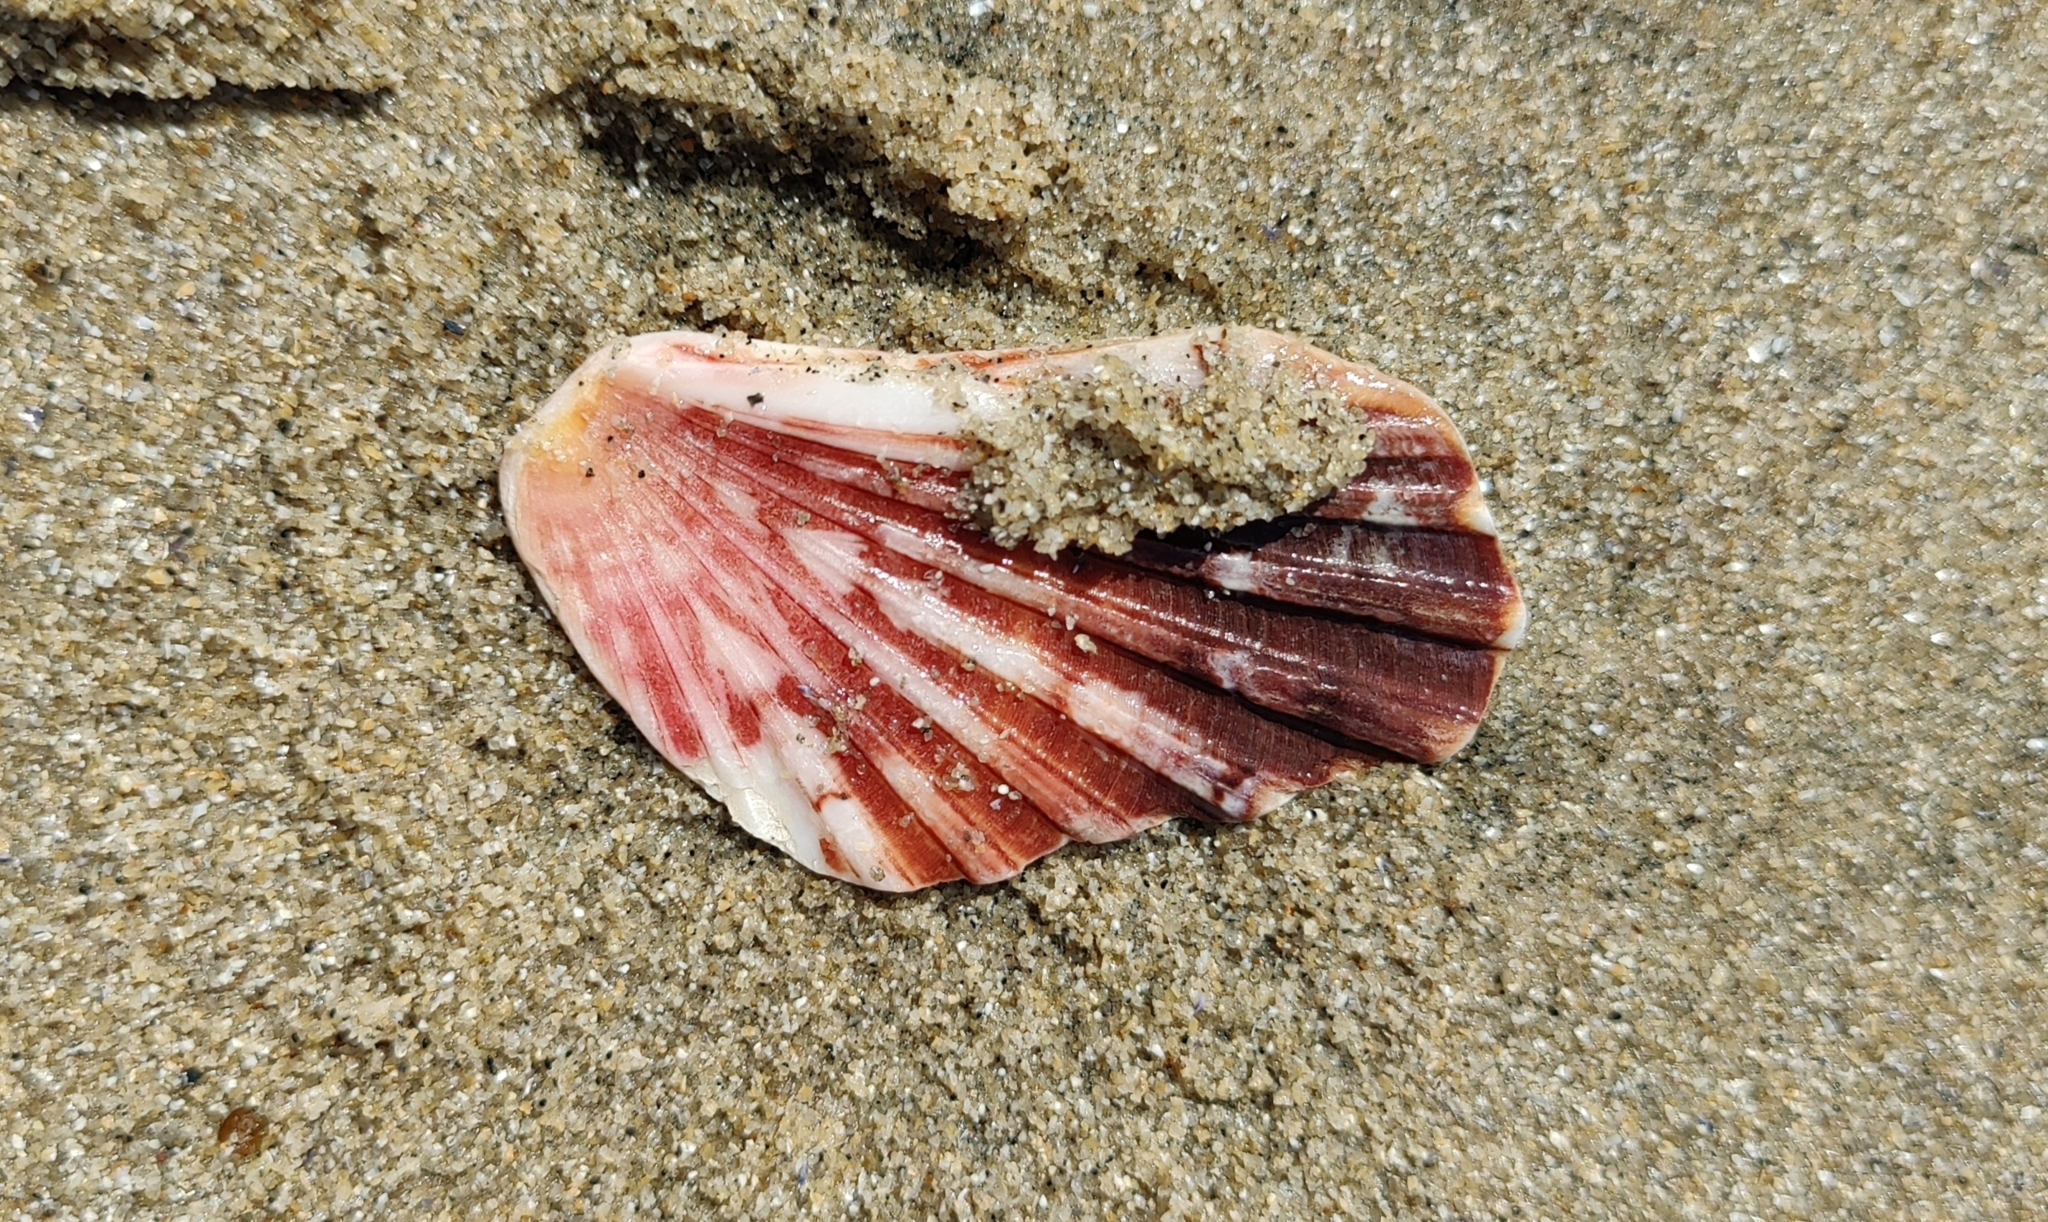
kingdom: Animalia
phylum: Mollusca
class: Bivalvia
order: Pectinida
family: Pectinidae
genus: Pecten
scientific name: Pecten maximus
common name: Great scallop
